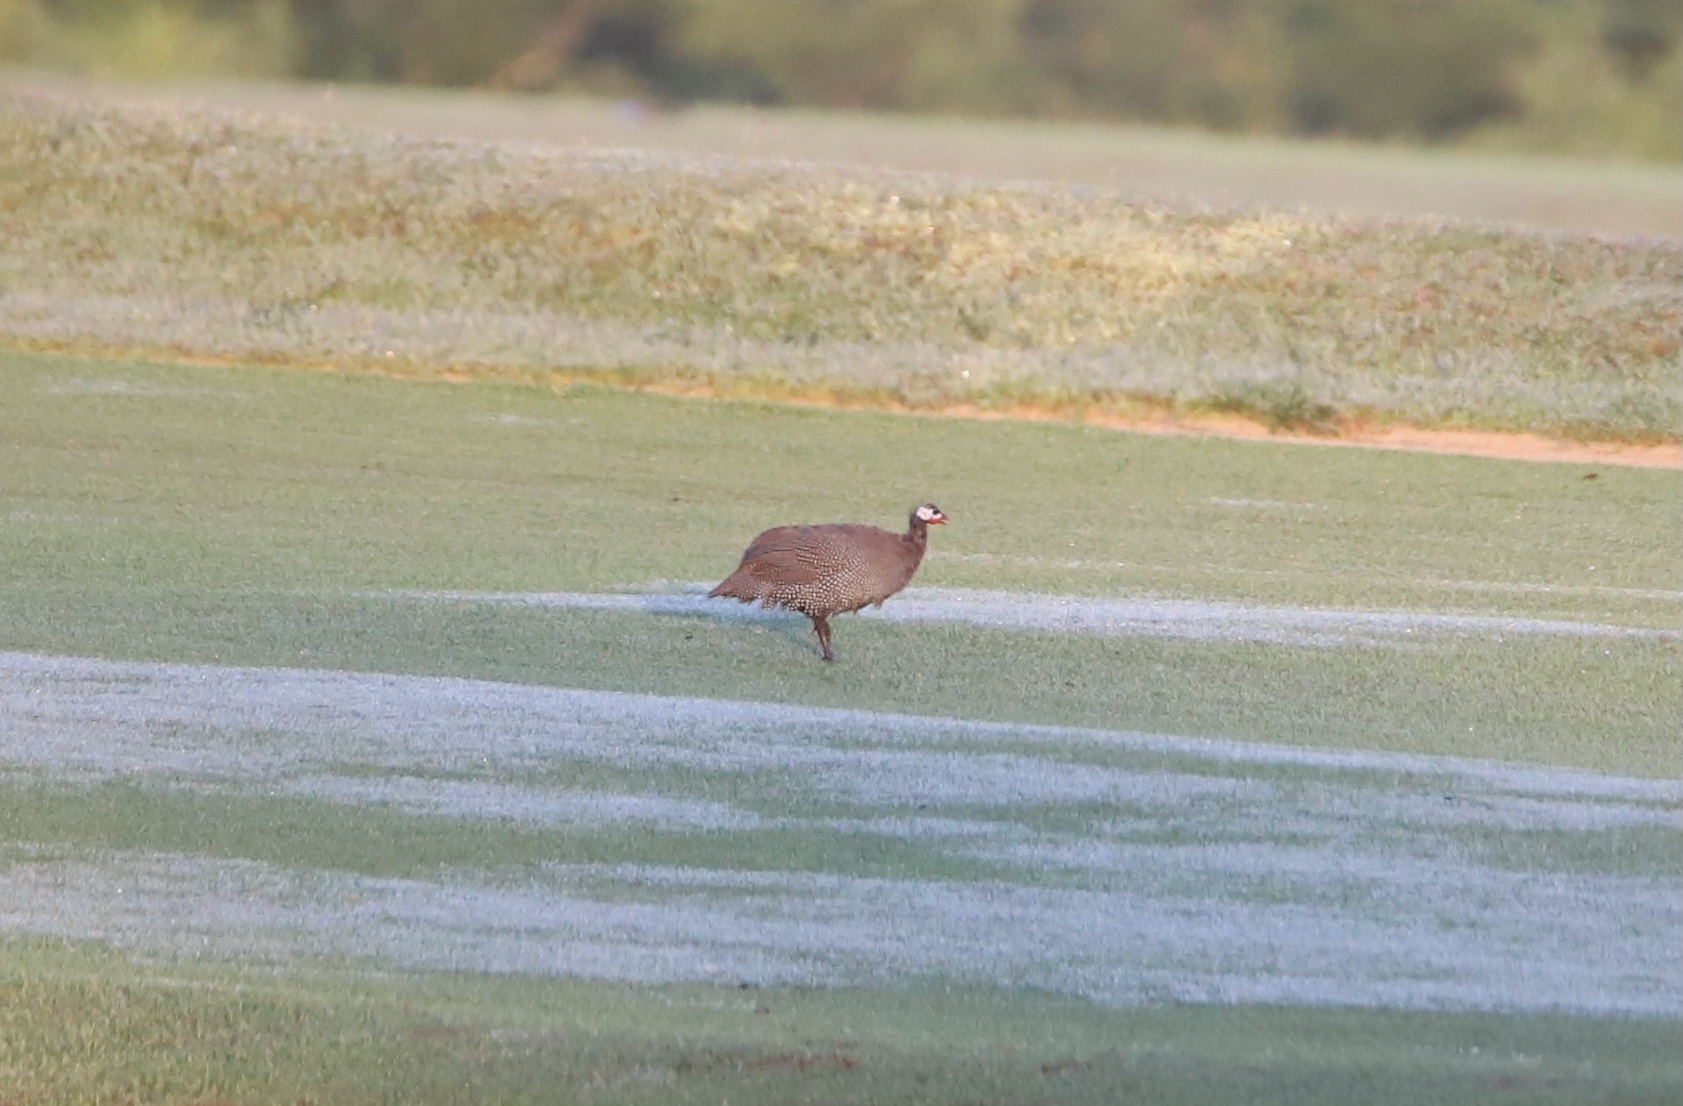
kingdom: Animalia
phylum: Chordata
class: Aves
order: Galliformes
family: Numididae
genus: Numida
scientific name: Numida meleagris
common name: Helmeted guineafowl
